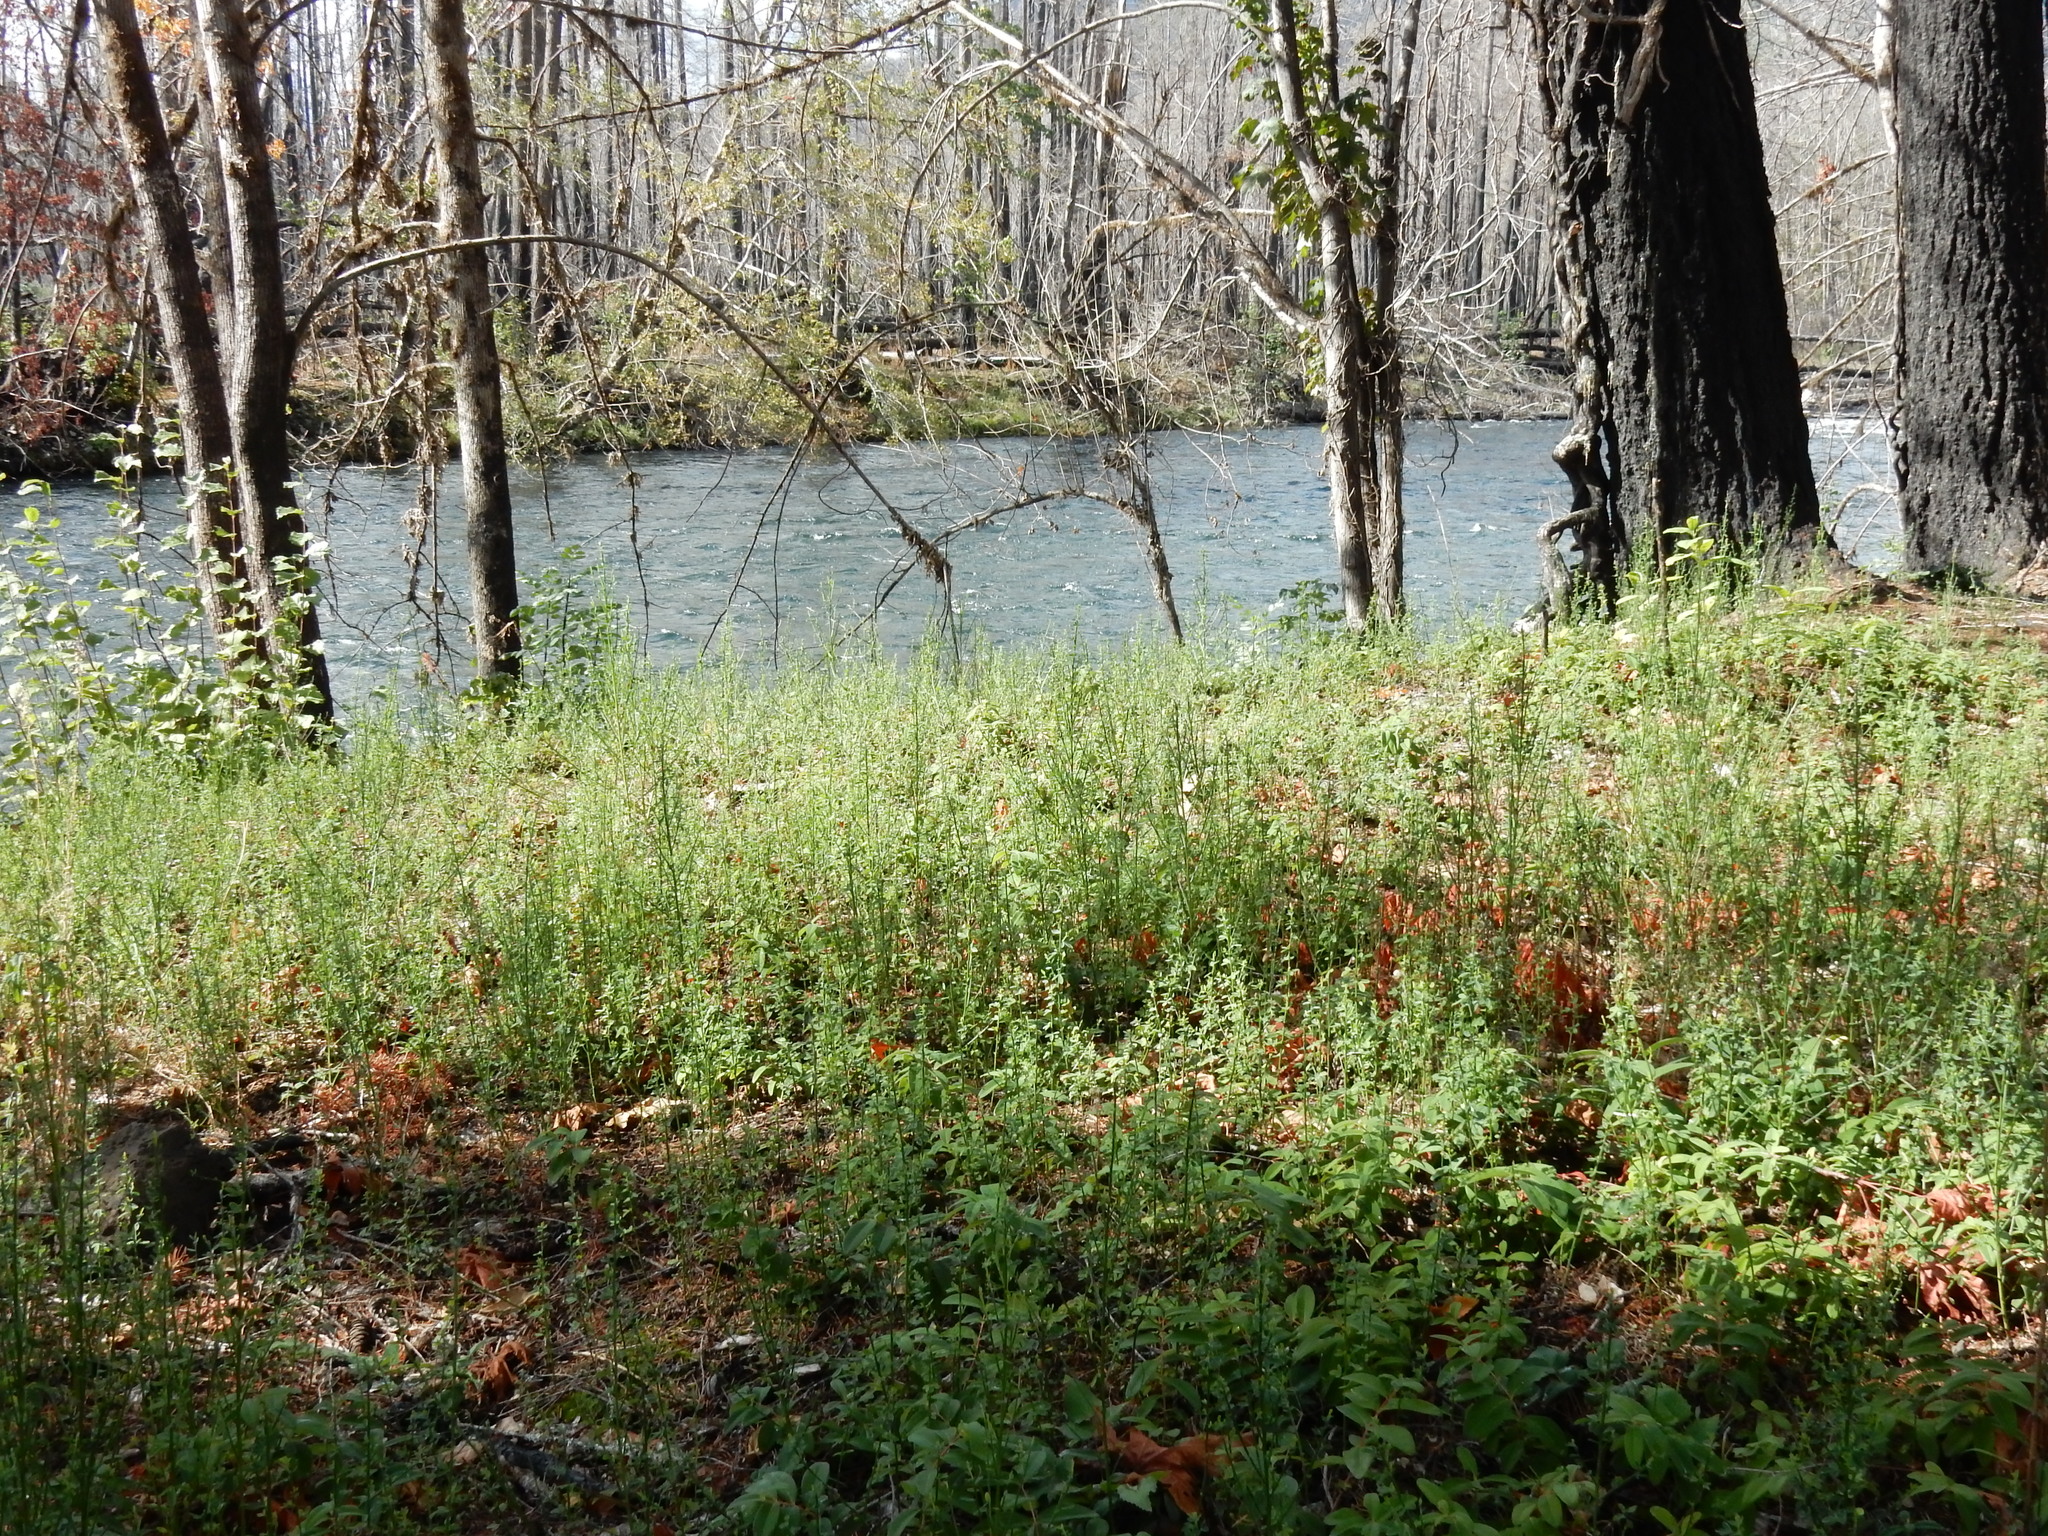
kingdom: Plantae
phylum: Tracheophyta
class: Magnoliopsida
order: Fabales
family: Fabaceae
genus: Cytisus
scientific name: Cytisus scoparius
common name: Scotch broom
